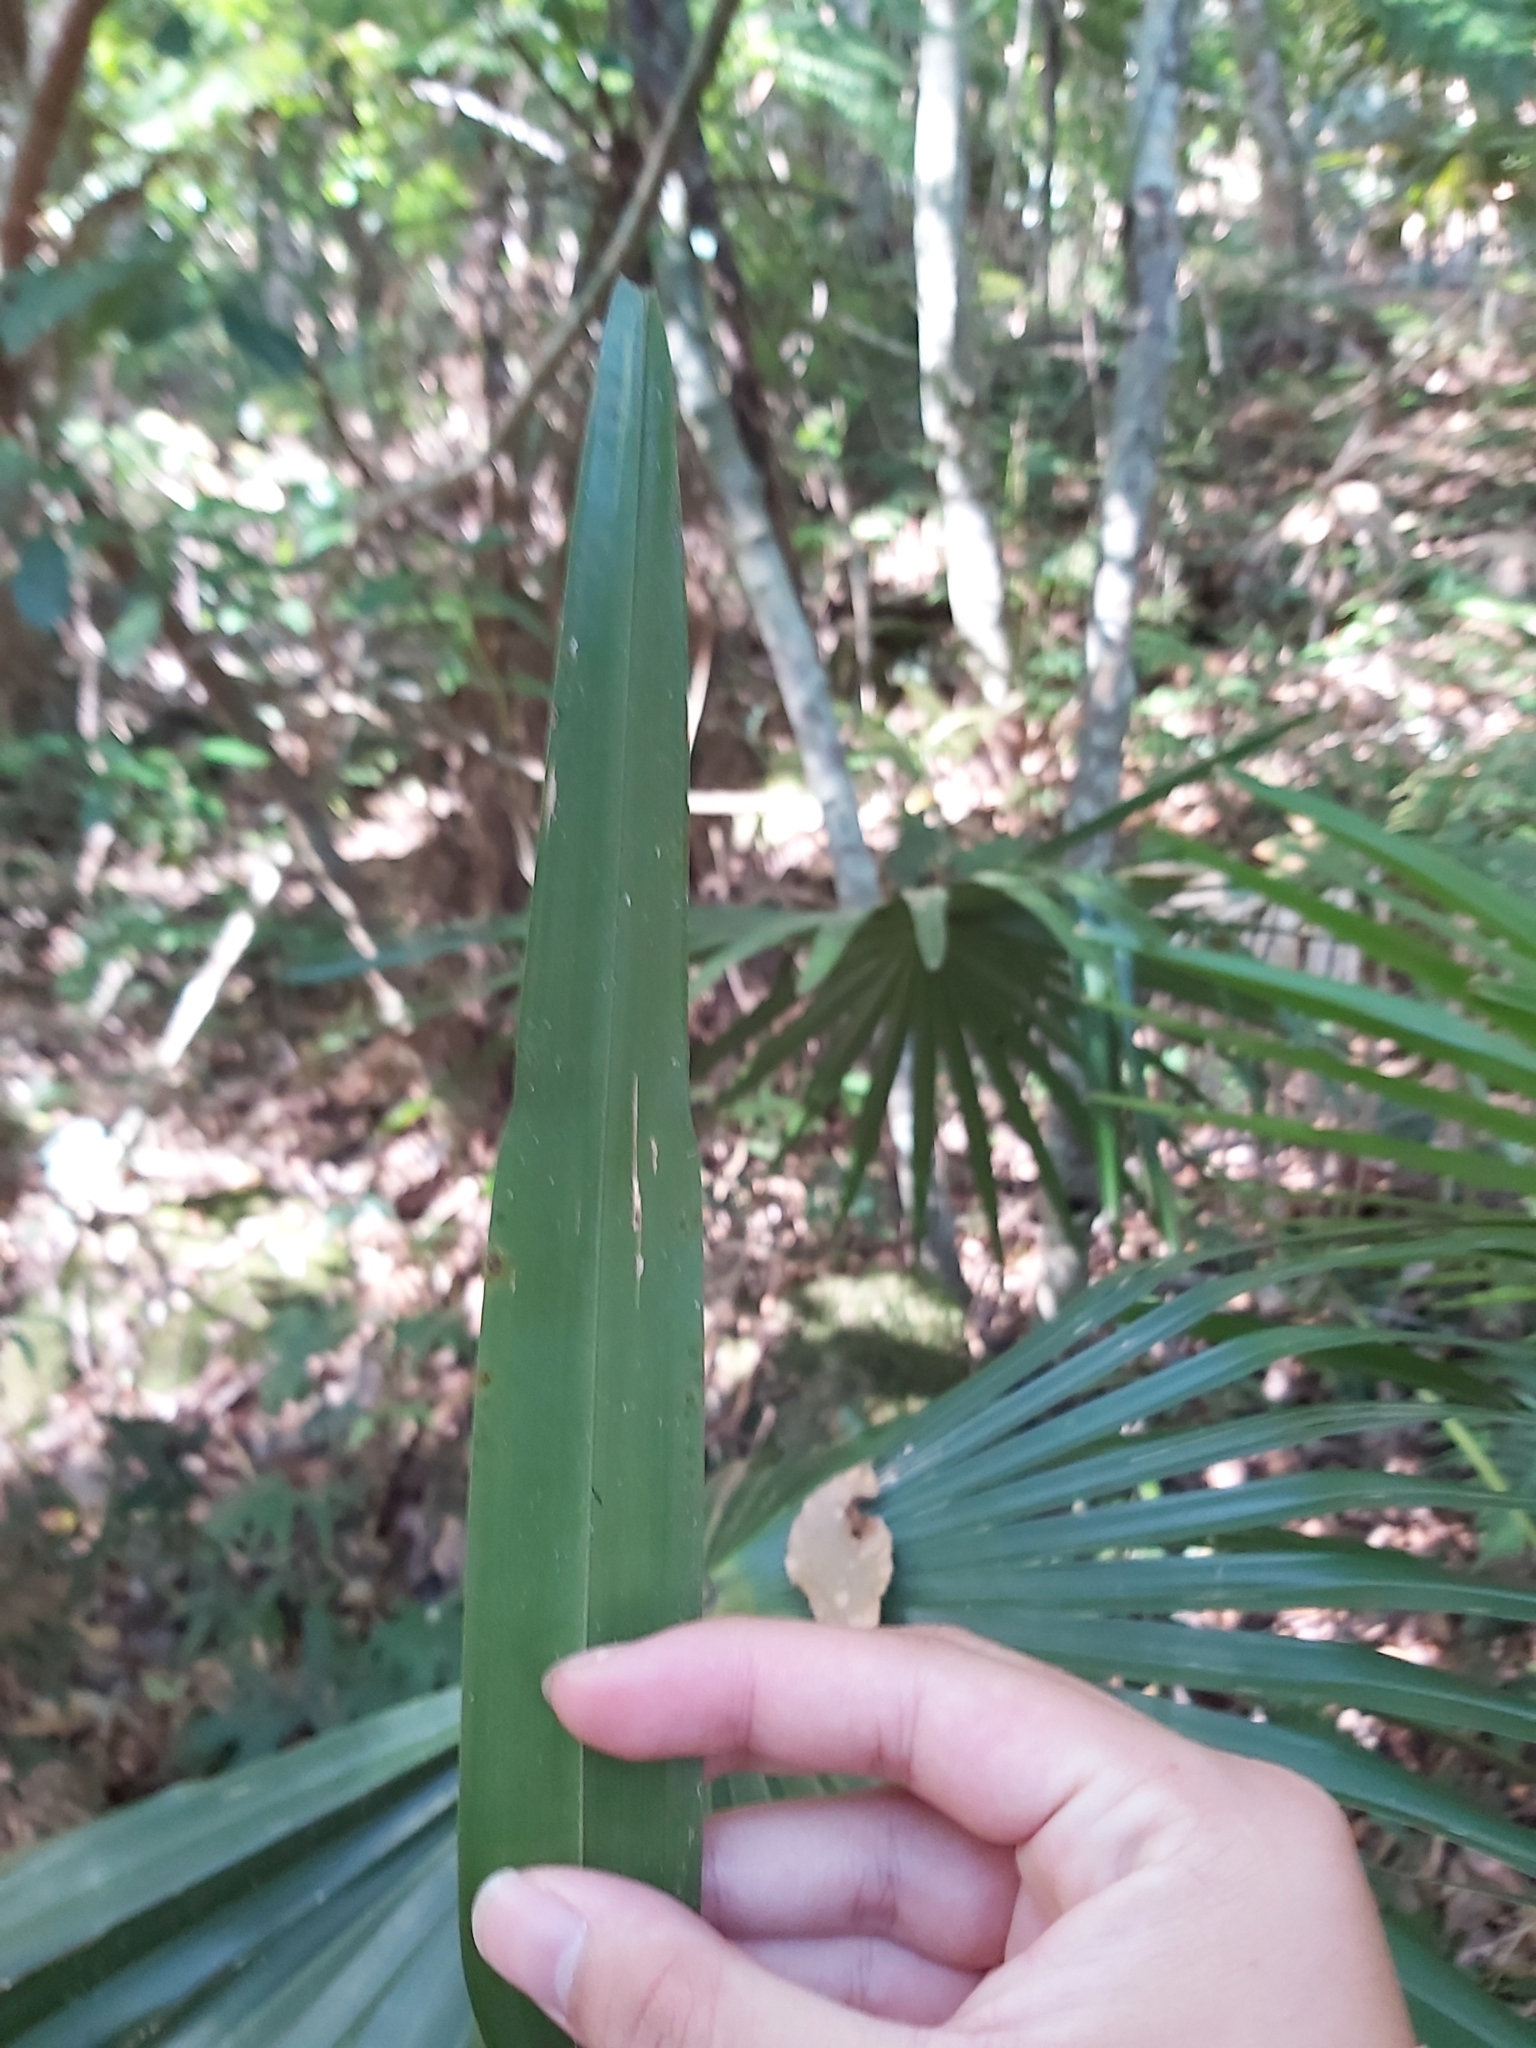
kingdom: Plantae
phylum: Tracheophyta
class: Liliopsida
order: Arecales
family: Arecaceae
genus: Livistona
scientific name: Livistona australis
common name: Cabbage fan palm
